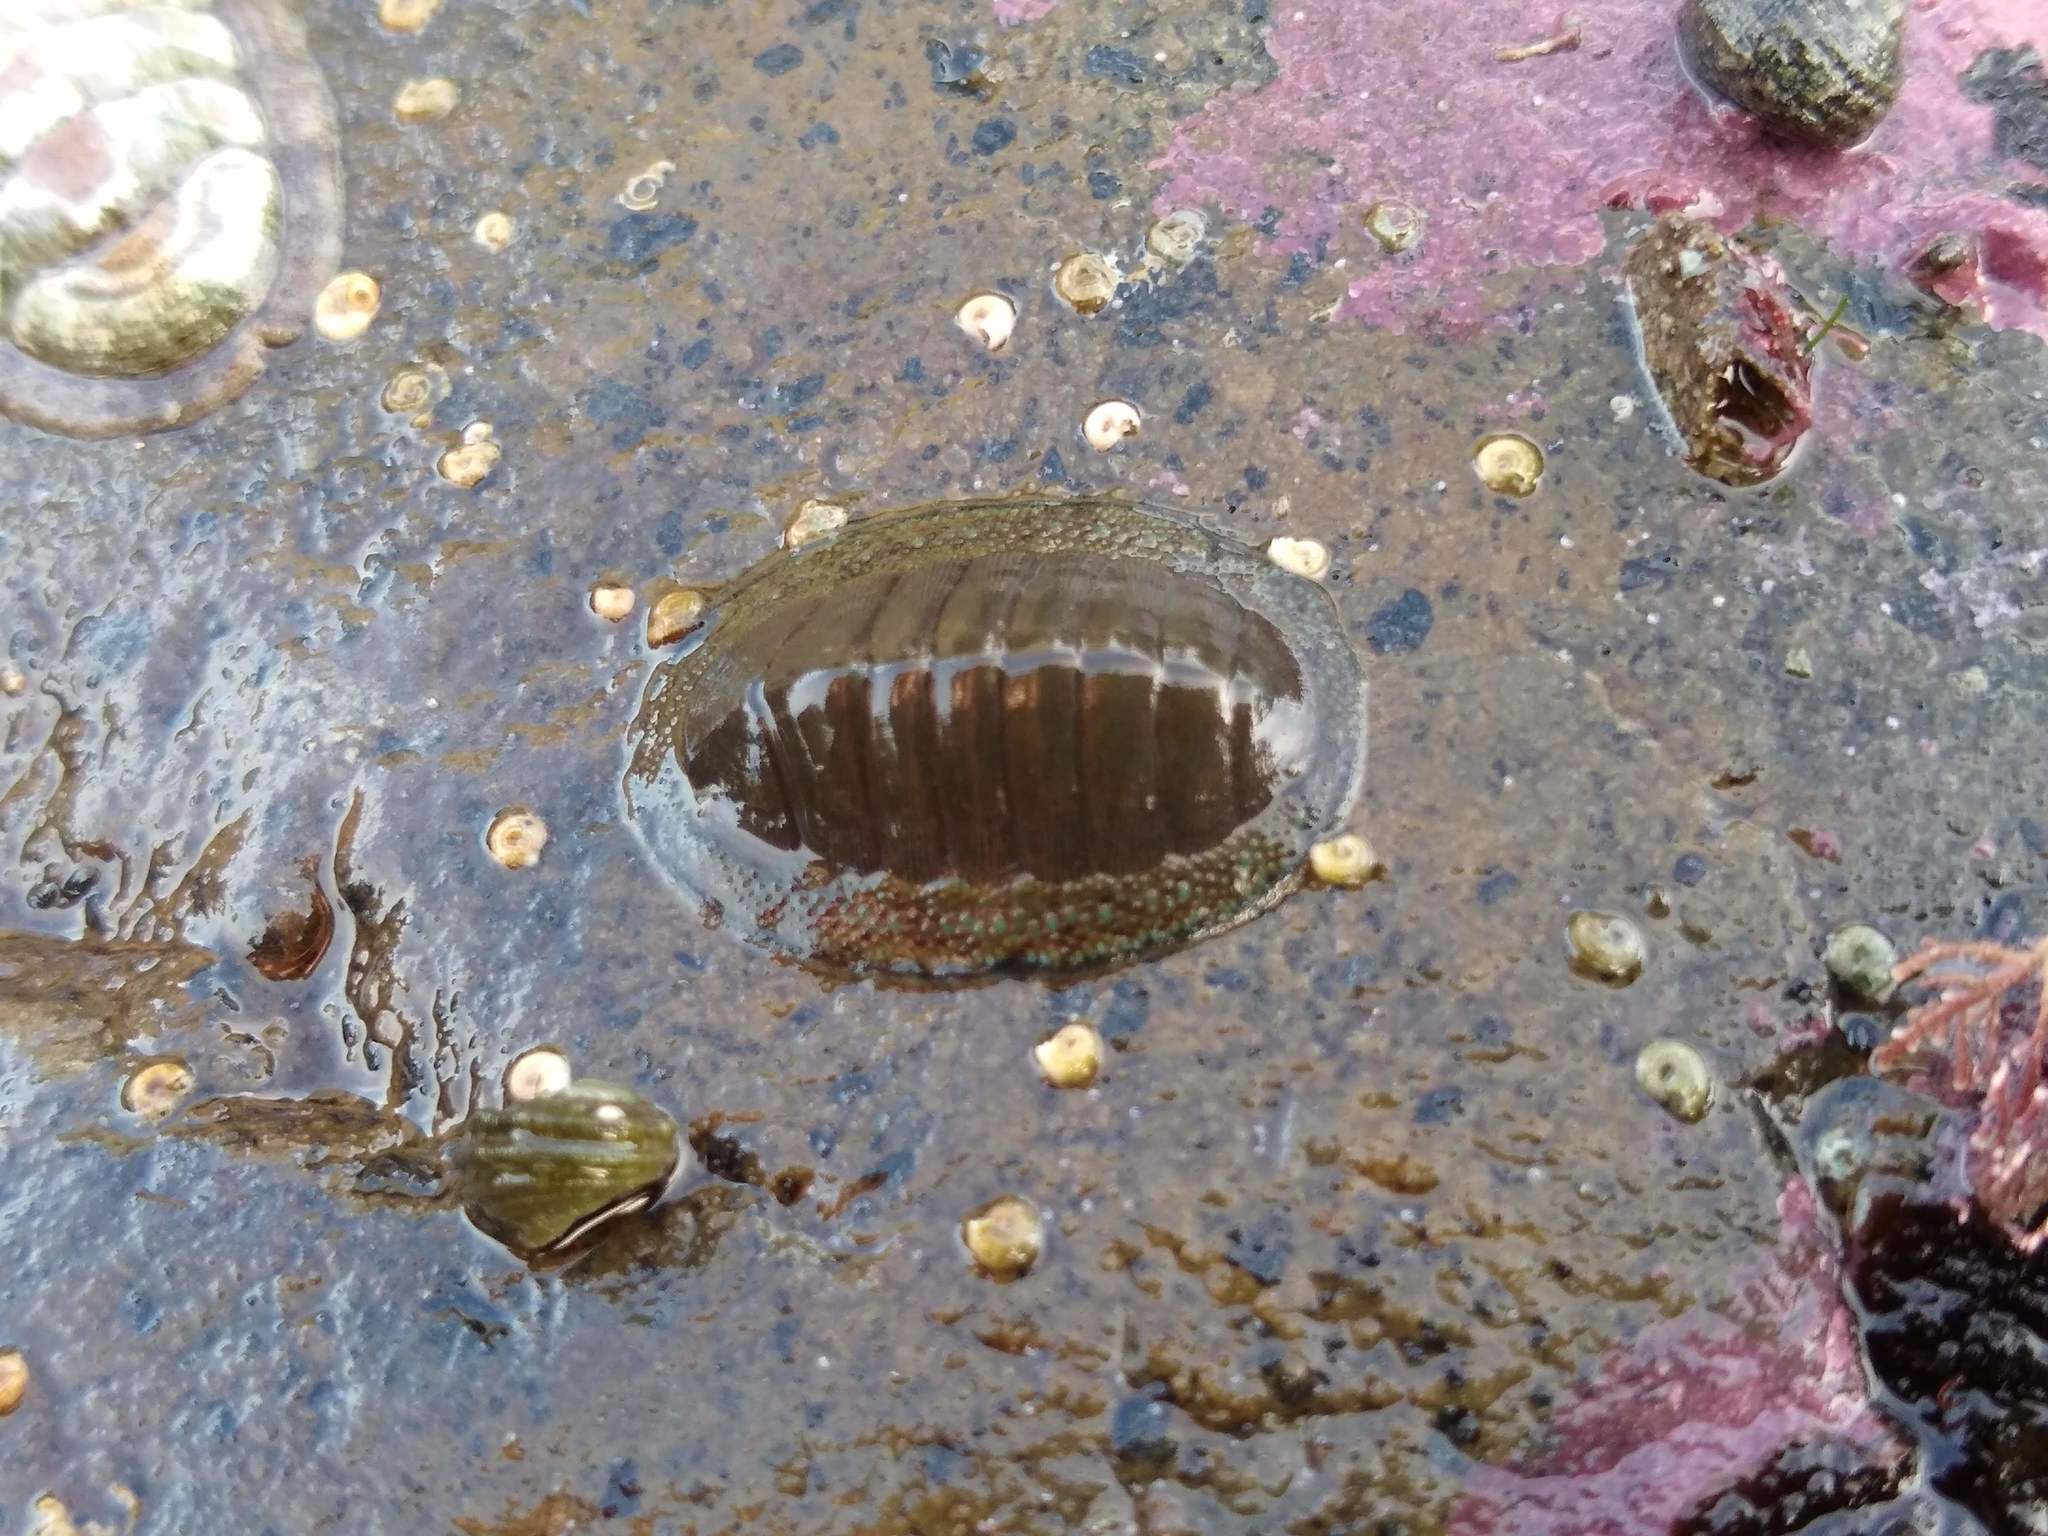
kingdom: Animalia
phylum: Mollusca
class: Polyplacophora
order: Chitonida
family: Chitonidae
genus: Chiton
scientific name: Chiton glaucus
